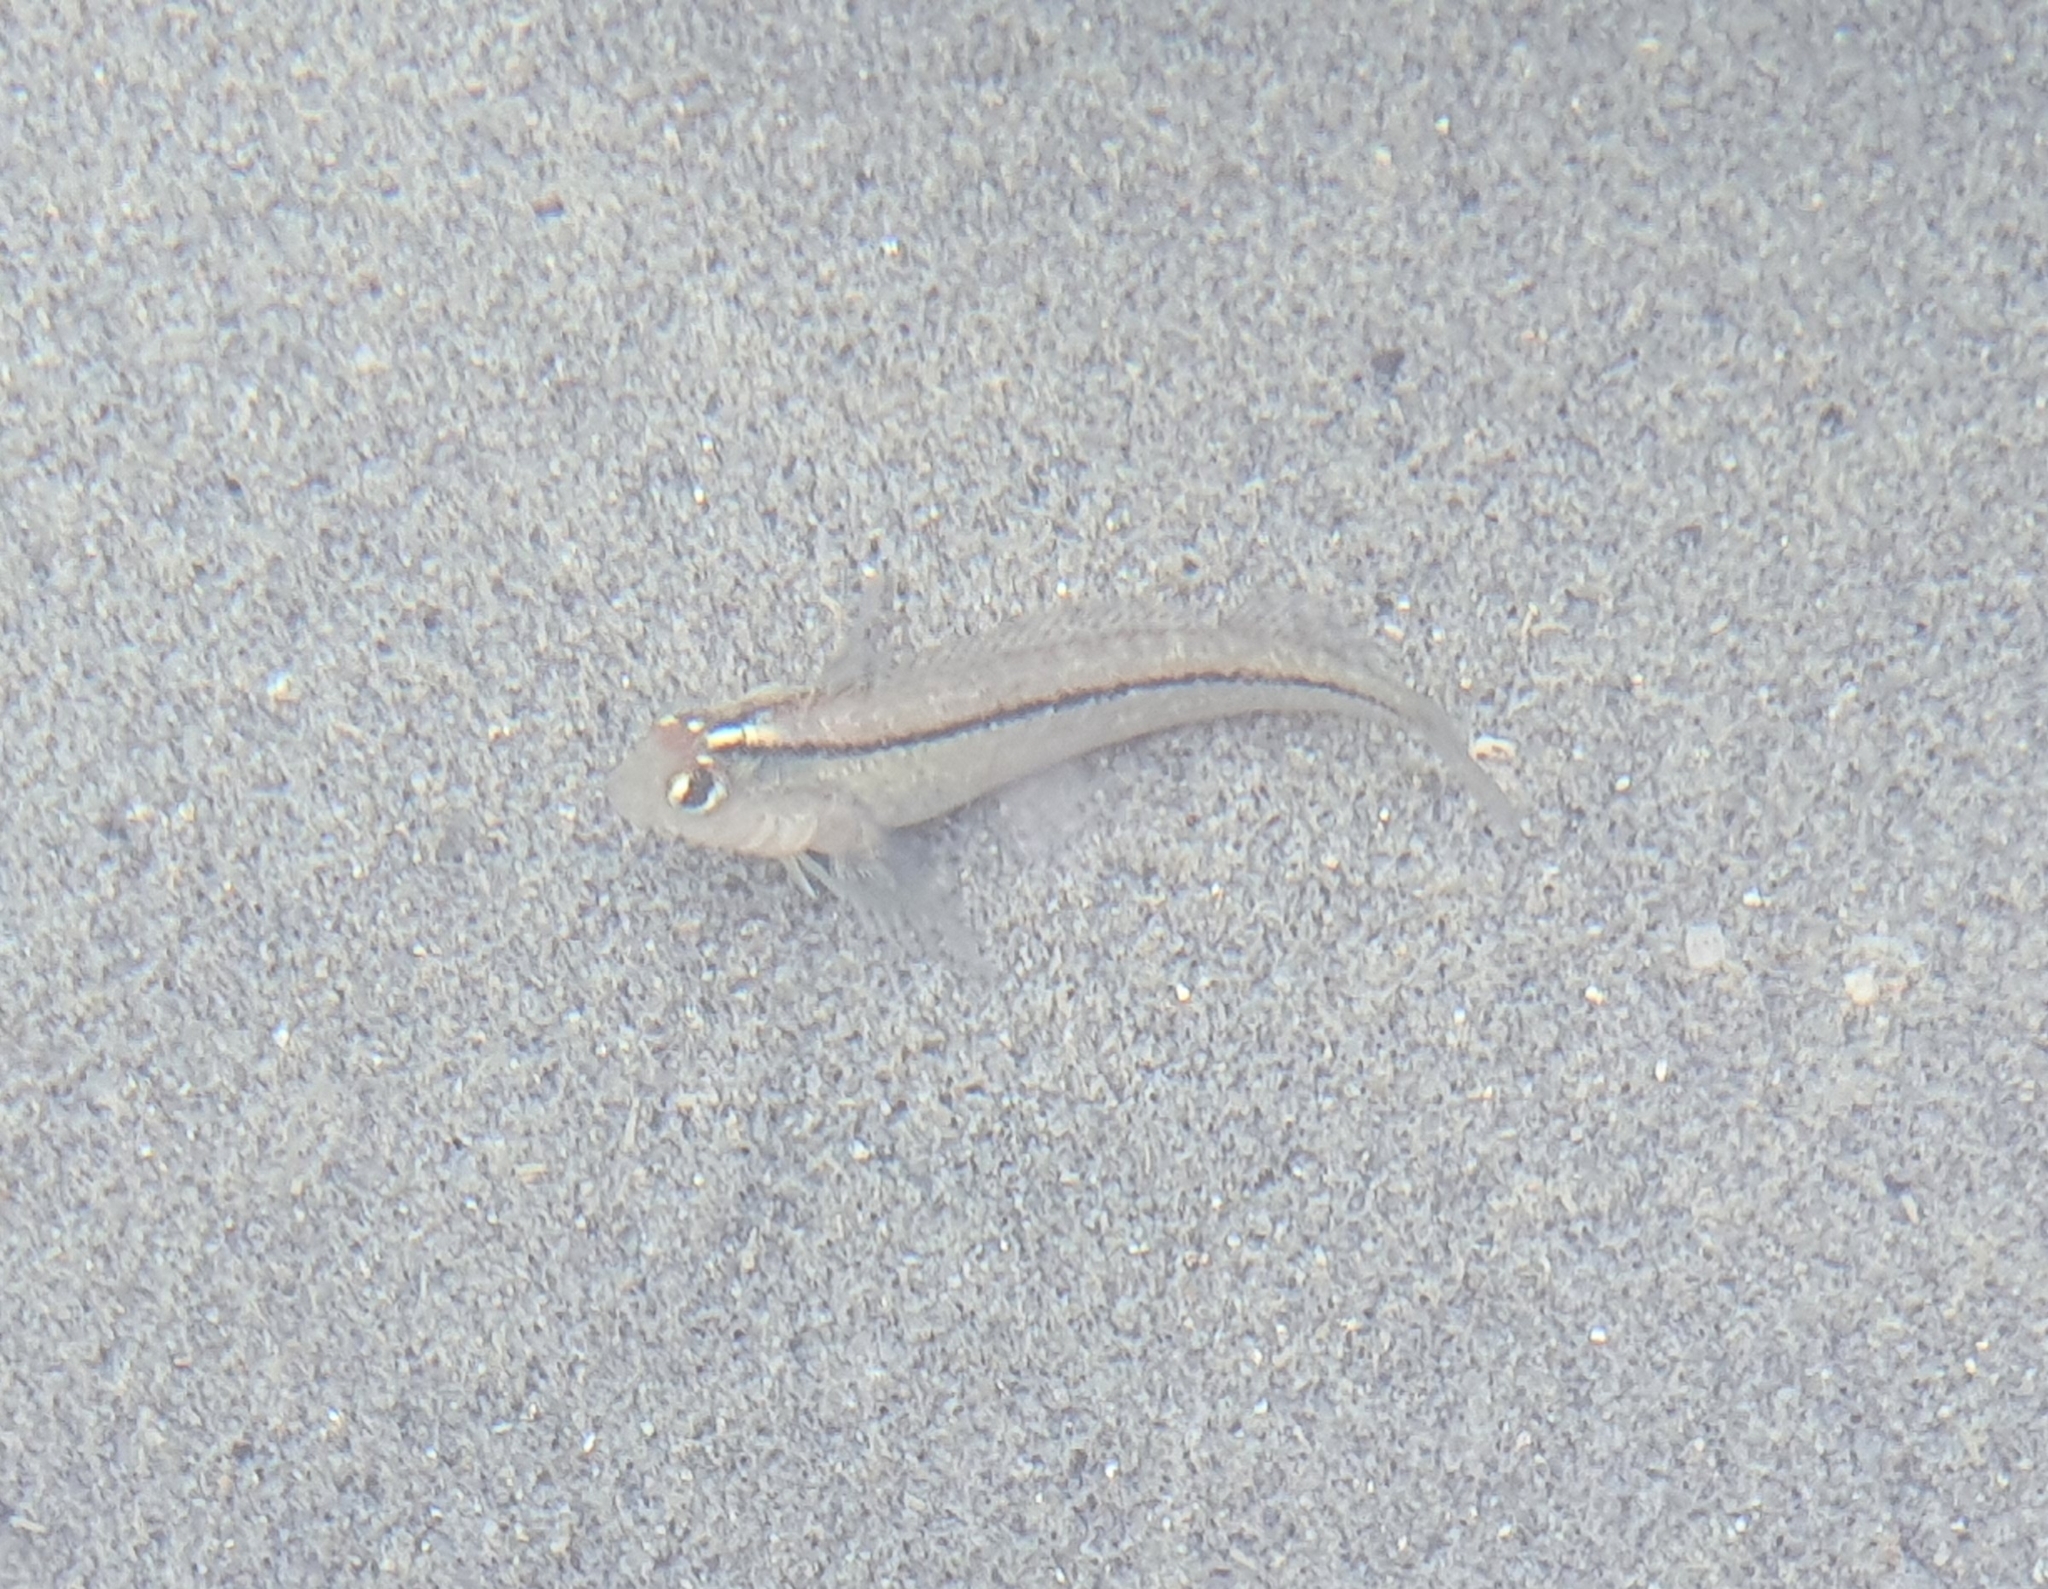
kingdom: Animalia
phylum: Chordata
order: Perciformes
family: Tripterygiidae
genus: Forsterygion
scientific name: Forsterygion lapillum
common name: Common triplefin
